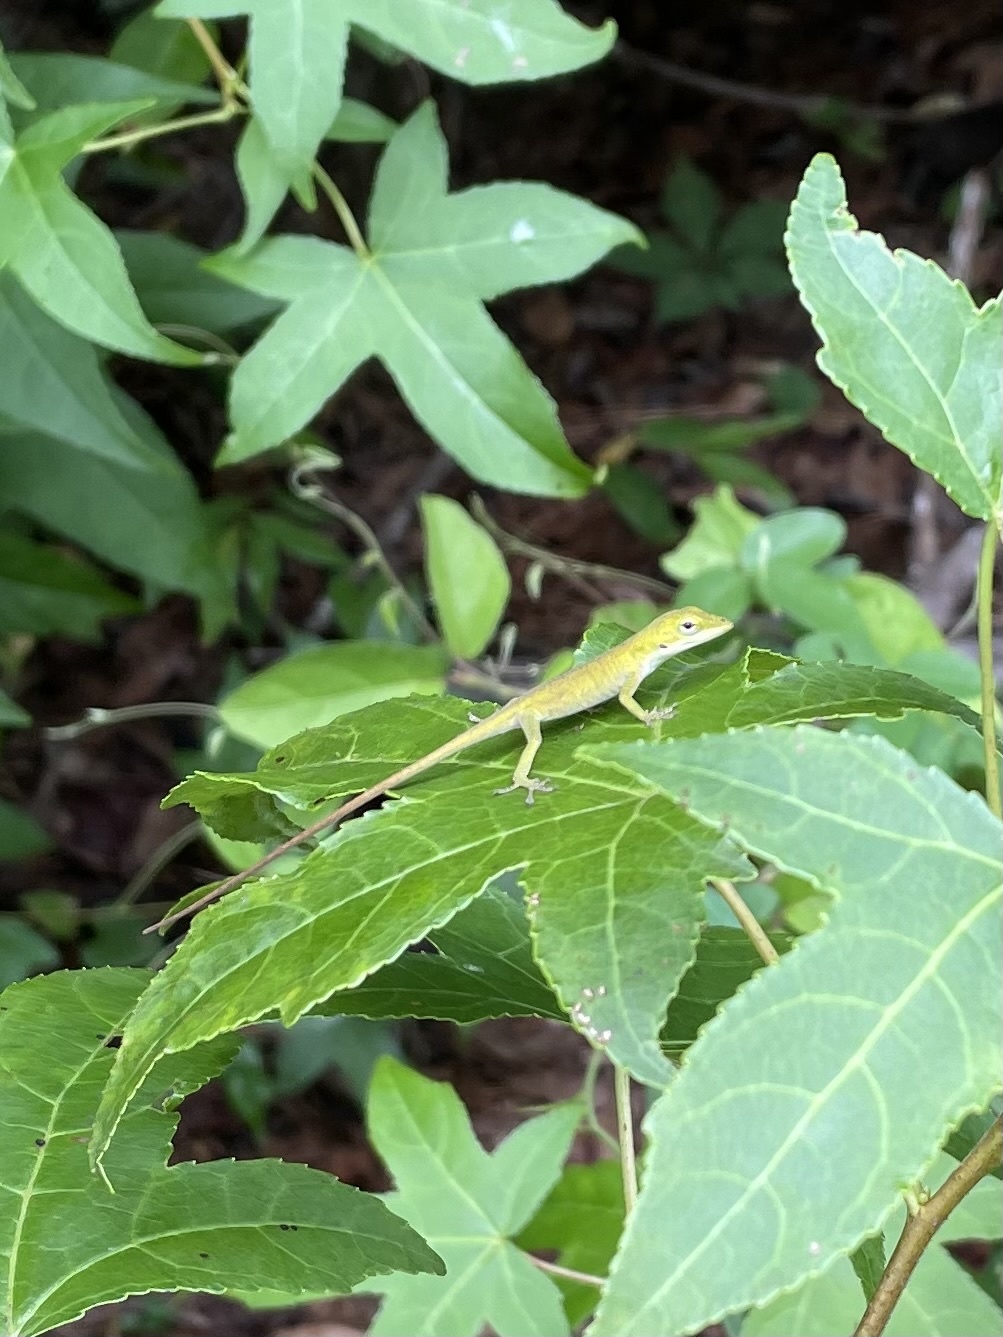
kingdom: Animalia
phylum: Chordata
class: Squamata
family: Dactyloidae
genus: Anolis
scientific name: Anolis carolinensis
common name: Green anole
